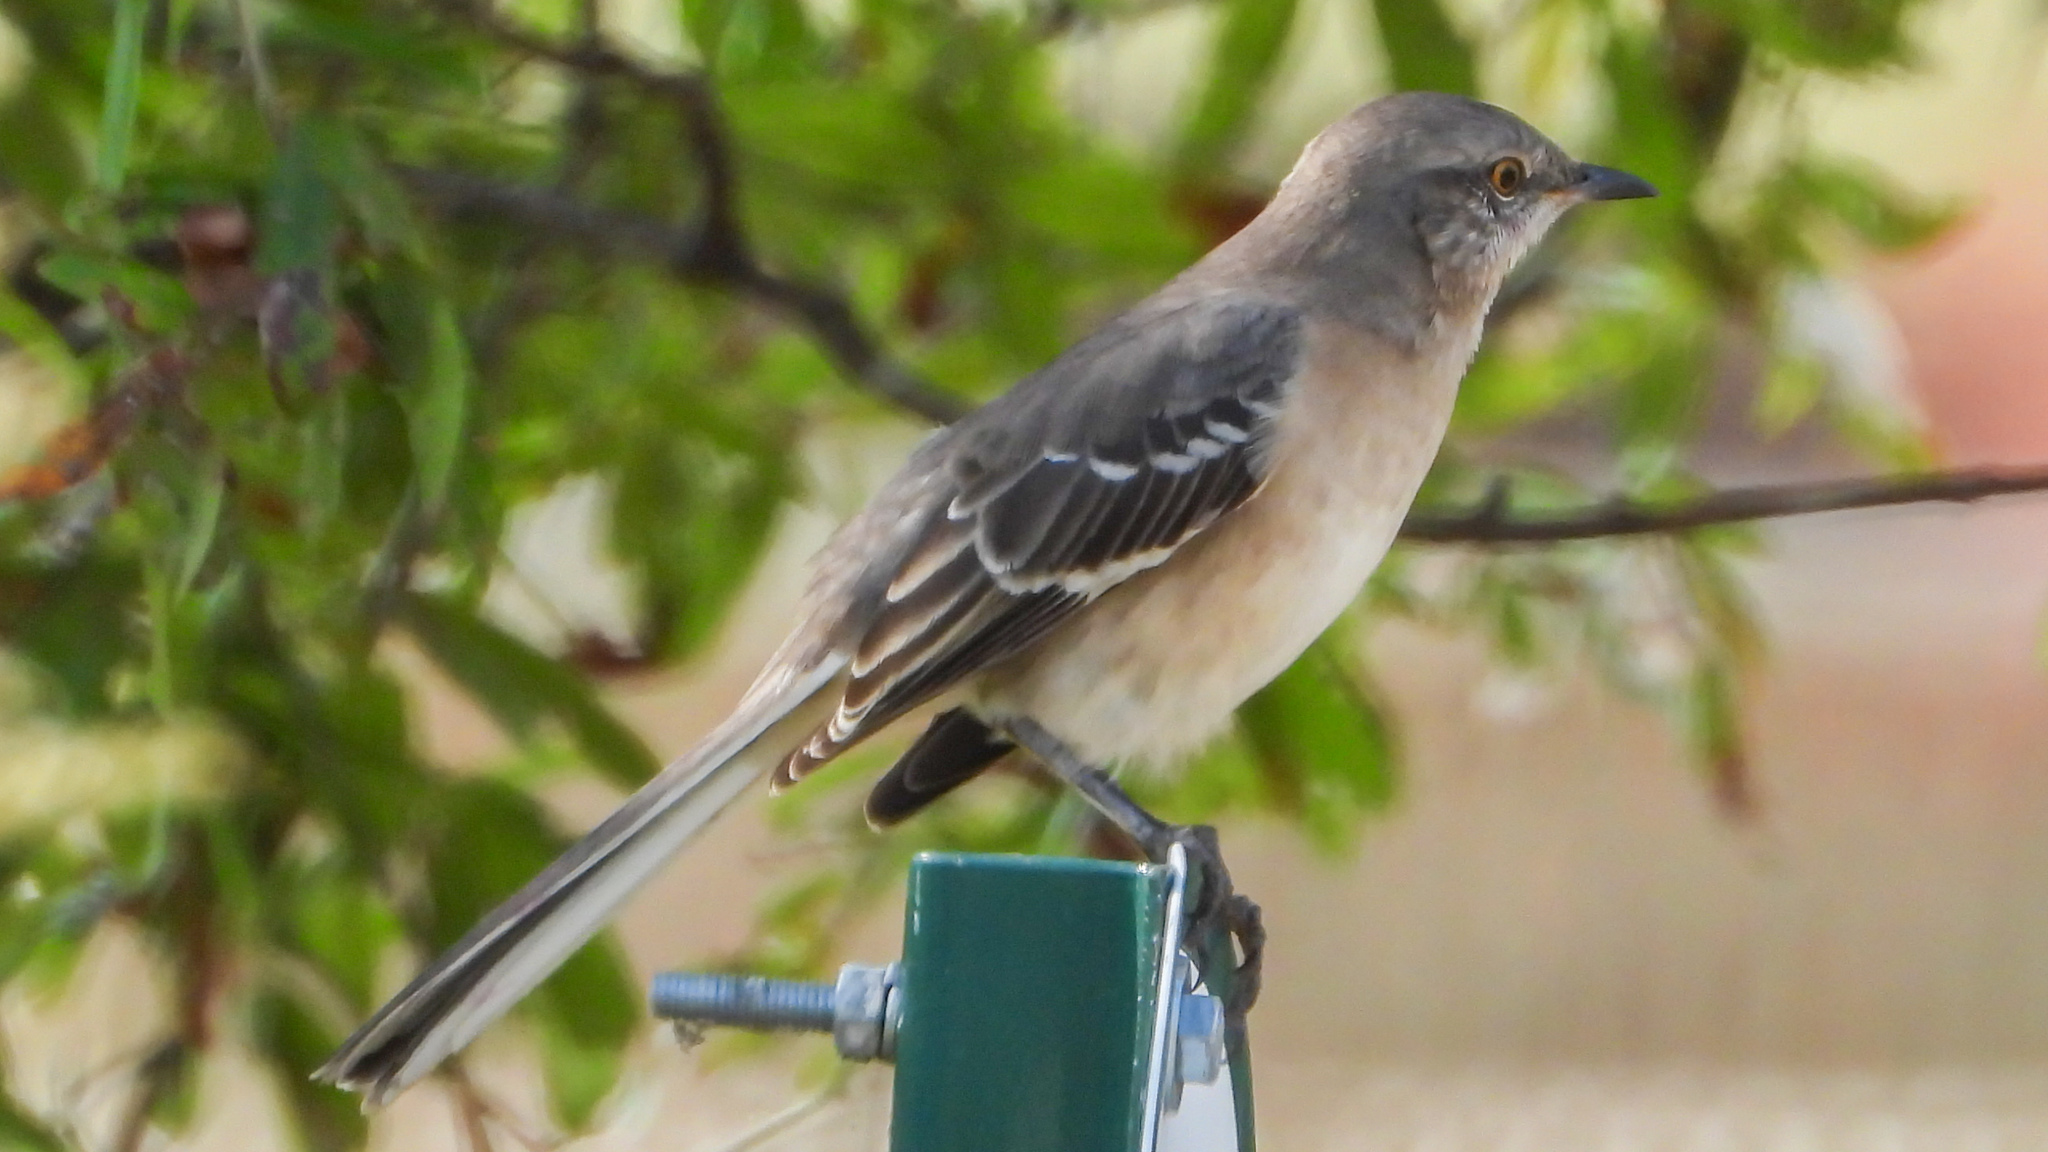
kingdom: Animalia
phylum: Chordata
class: Aves
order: Passeriformes
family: Mimidae
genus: Mimus
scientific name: Mimus polyglottos
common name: Northern mockingbird
